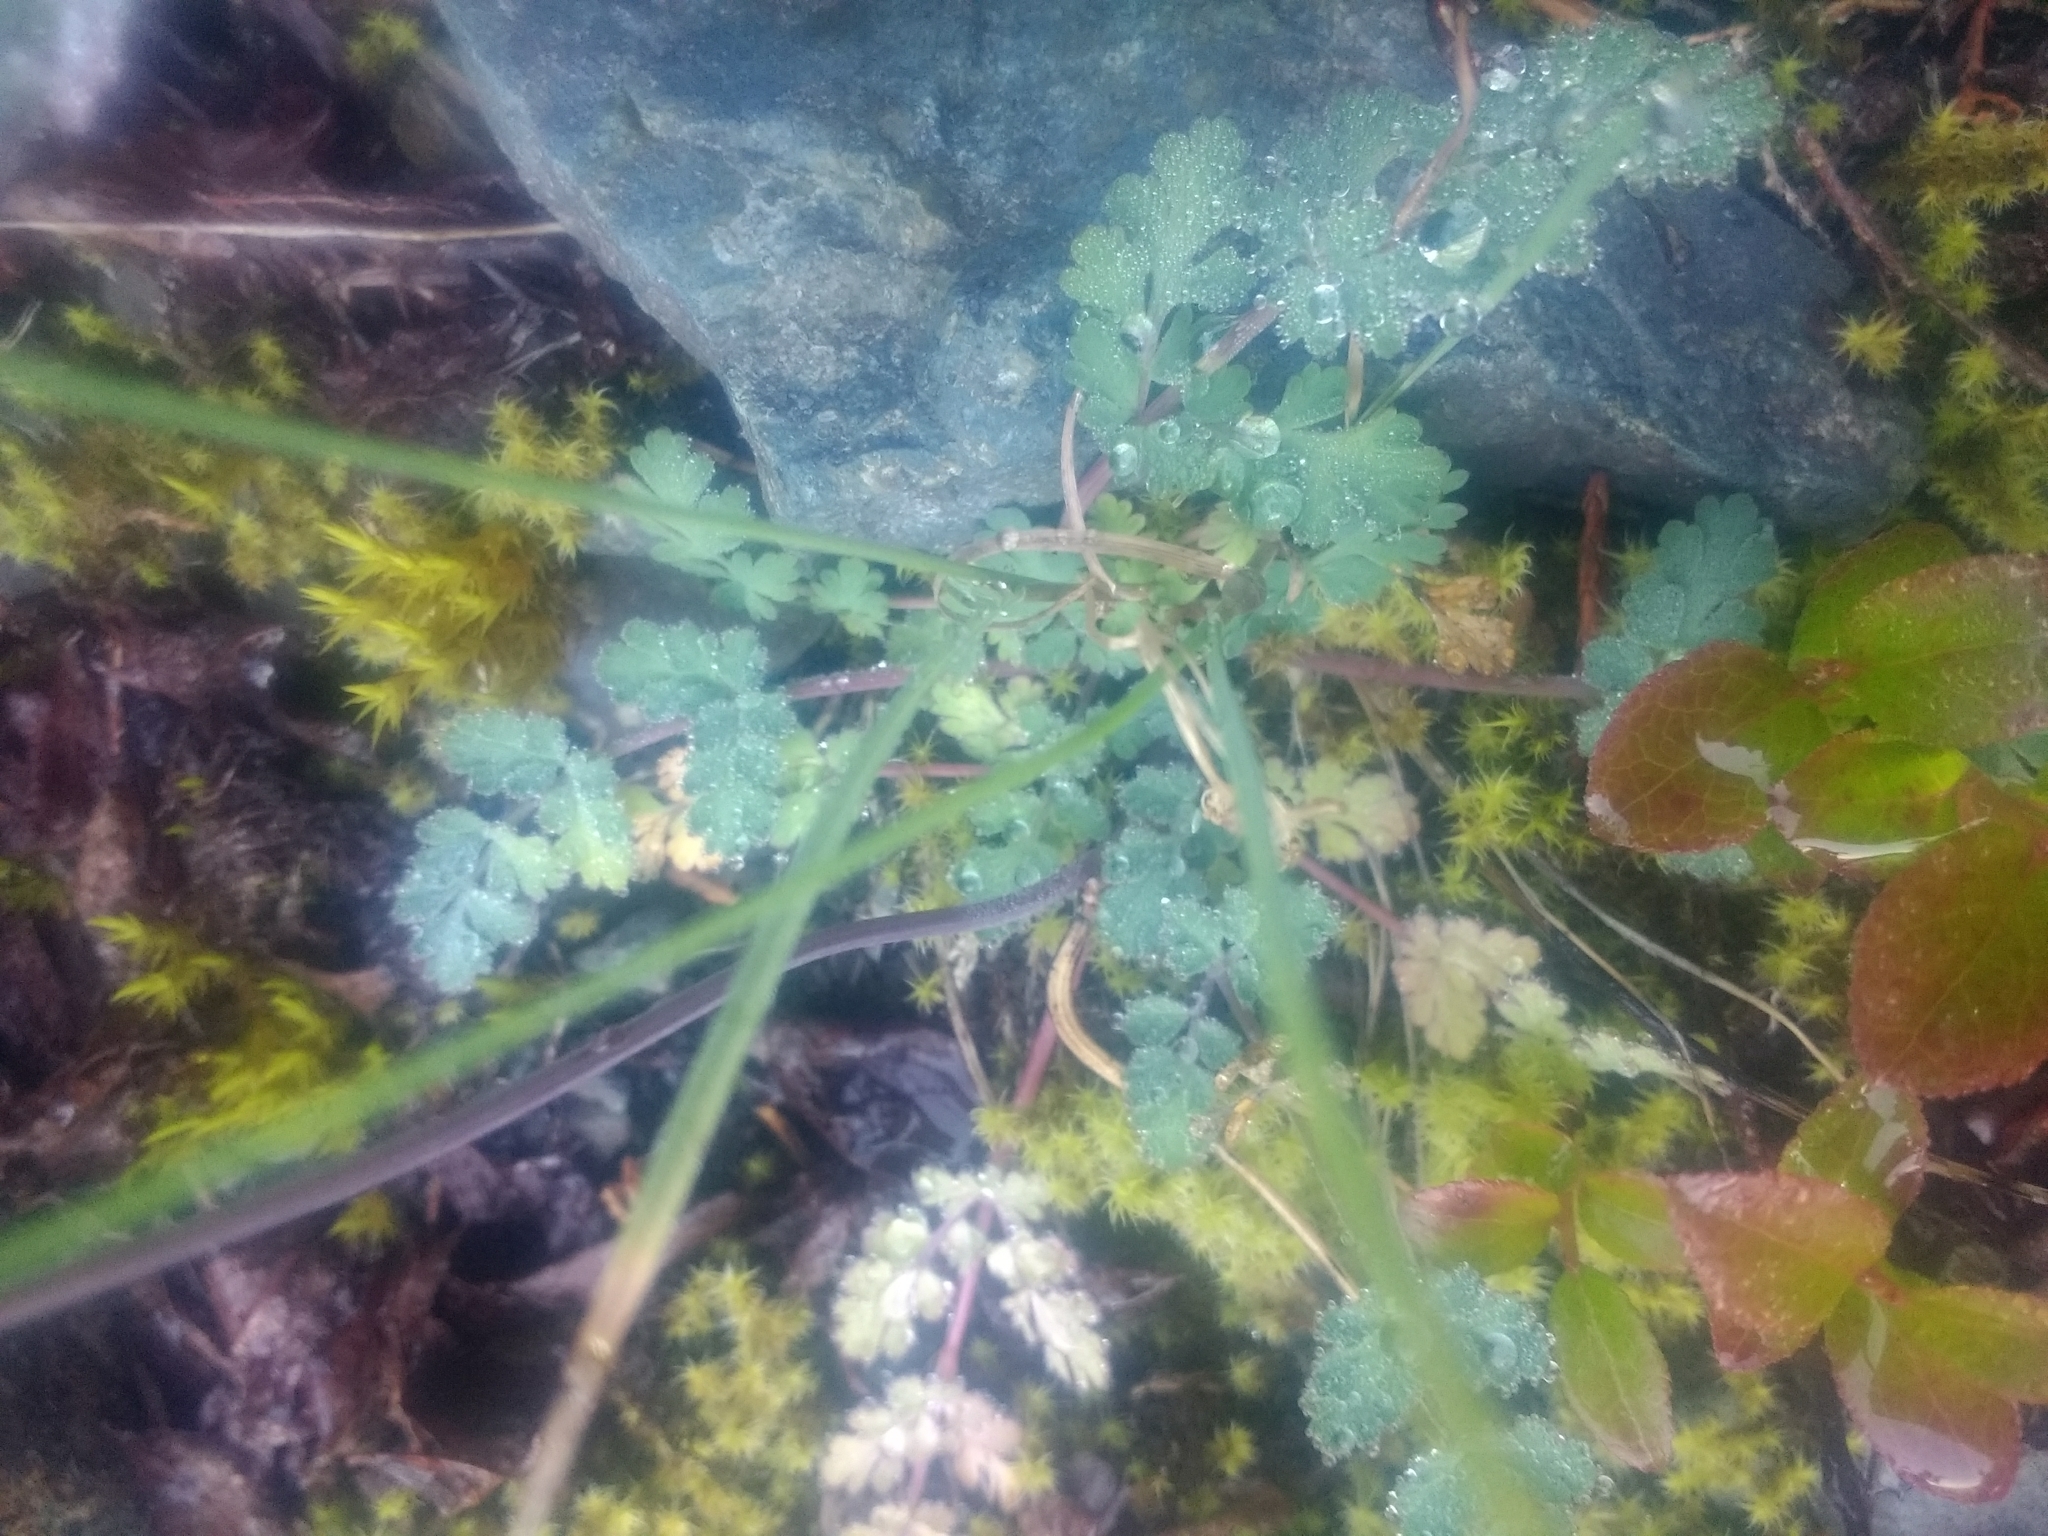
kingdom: Plantae
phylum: Tracheophyta
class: Magnoliopsida
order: Apiales
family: Apiaceae
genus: Lomatium
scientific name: Lomatium martindalei
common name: Cascade desert-parsley
